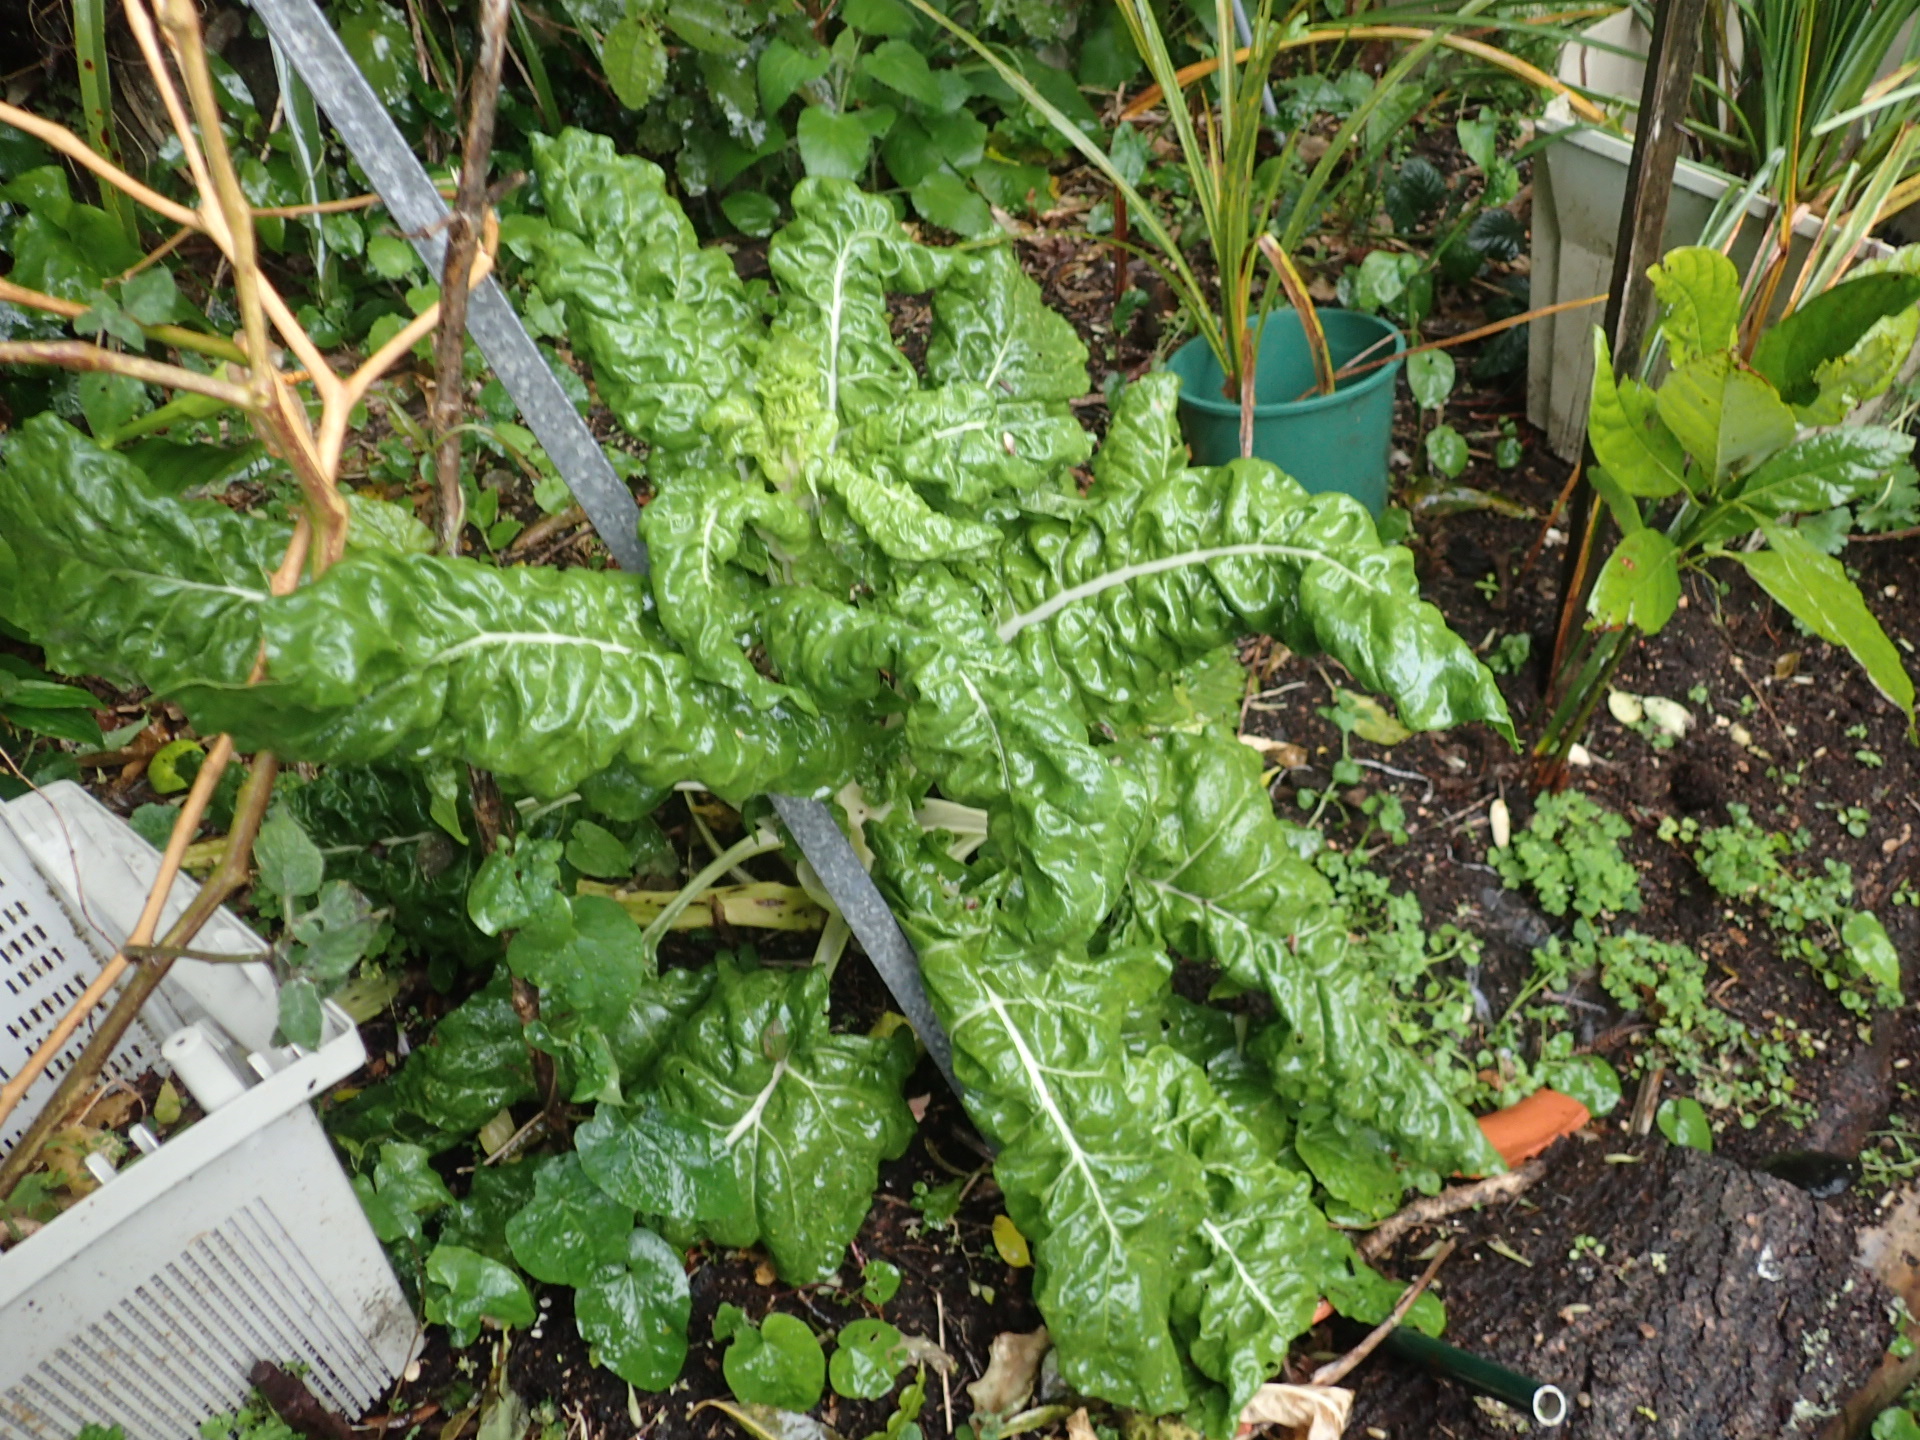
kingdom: Plantae
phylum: Tracheophyta
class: Magnoliopsida
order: Caryophyllales
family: Amaranthaceae
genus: Beta
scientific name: Beta vulgaris
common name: Beet
